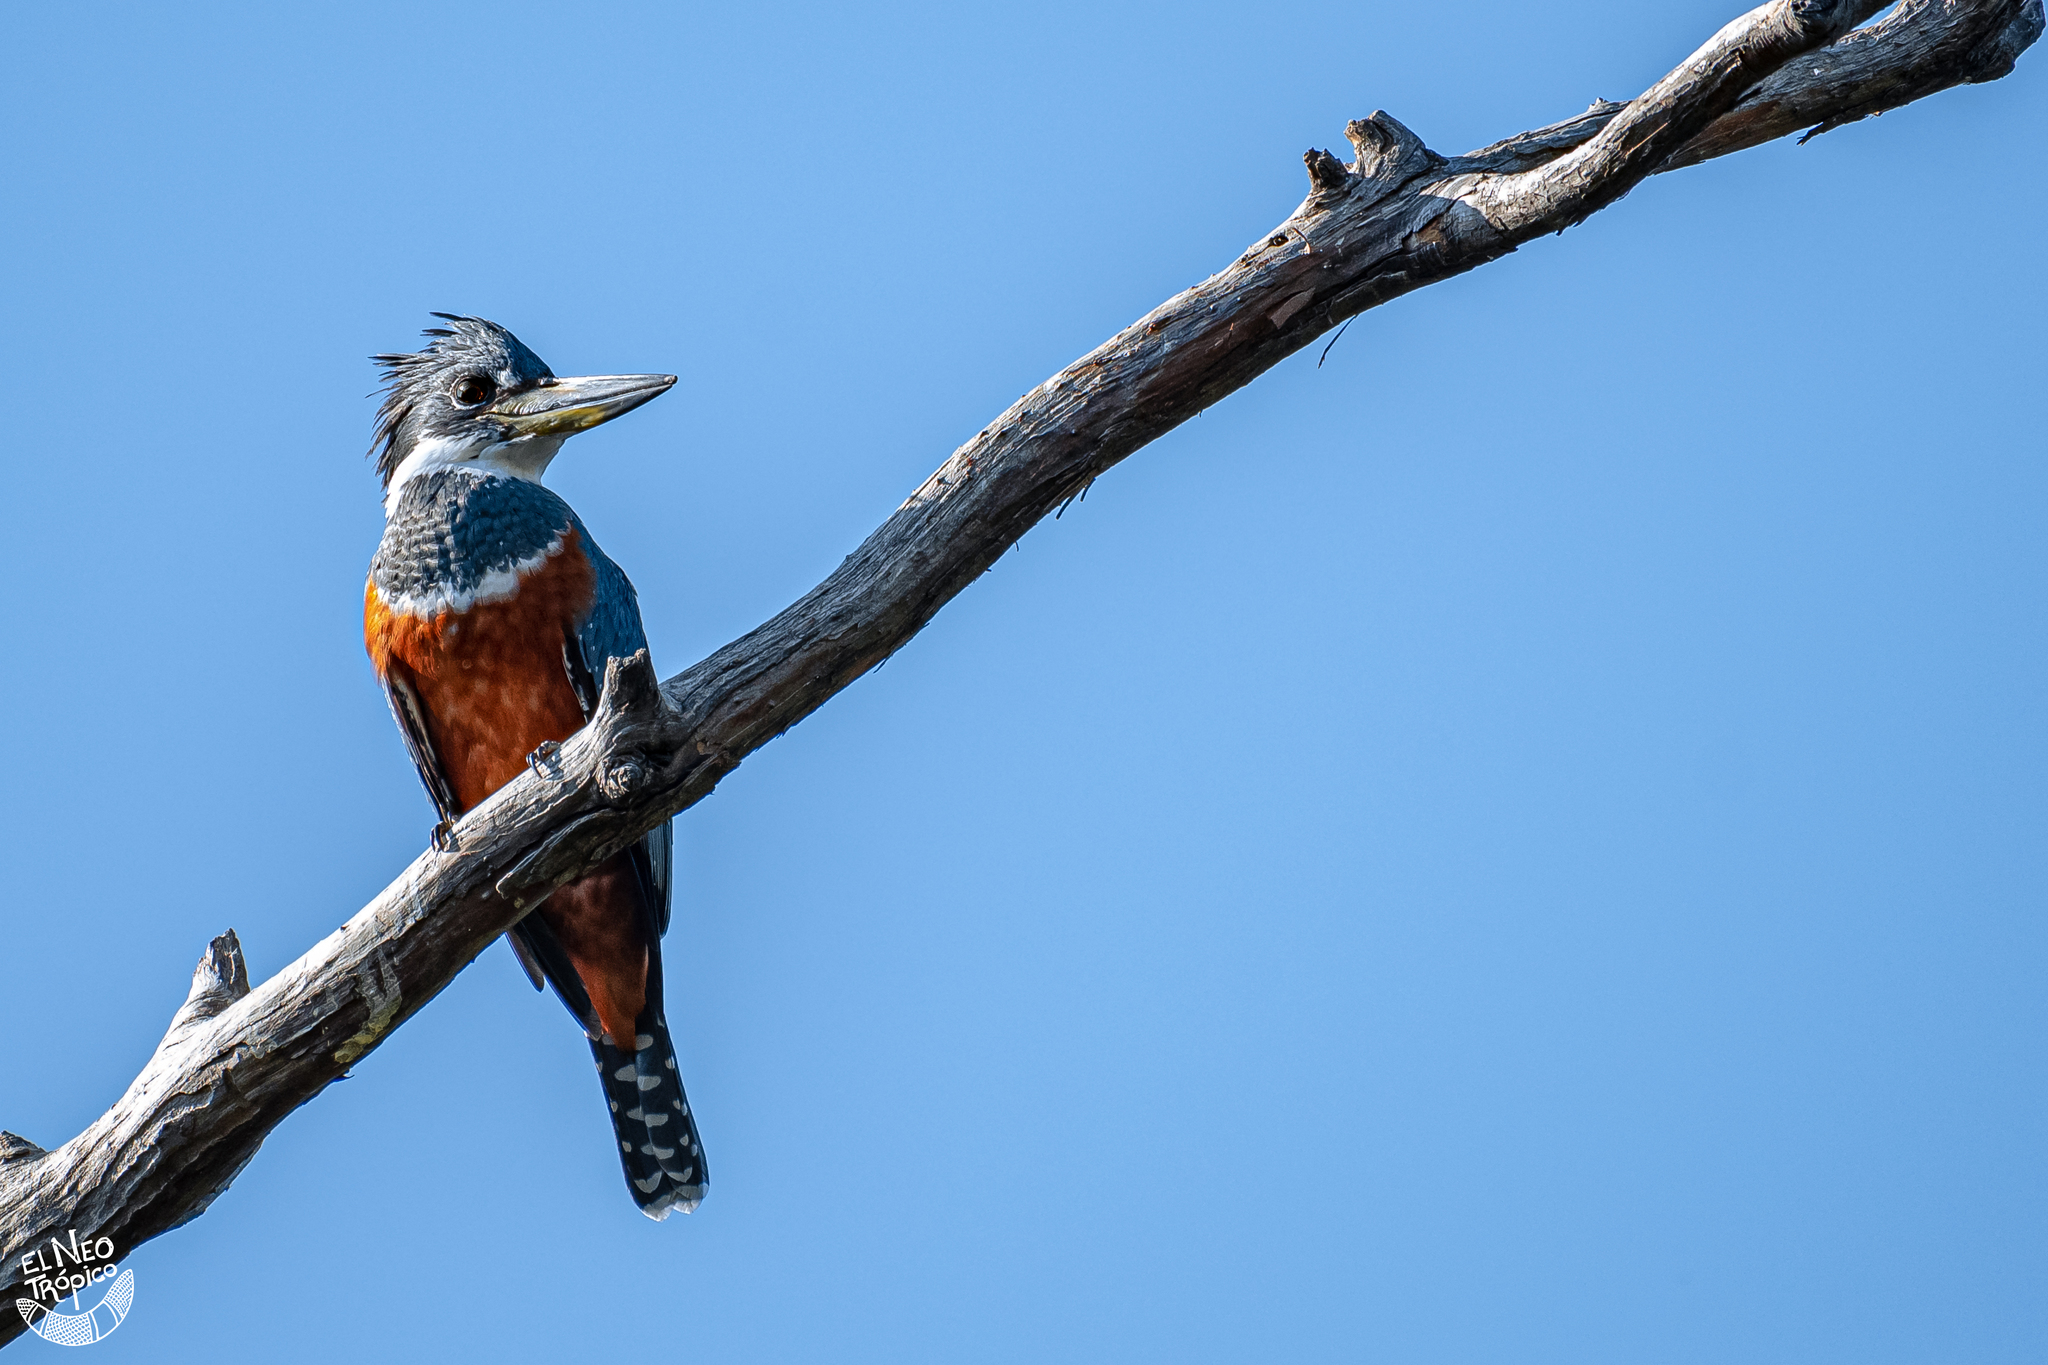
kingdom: Animalia
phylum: Chordata
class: Aves
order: Coraciiformes
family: Alcedinidae
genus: Megaceryle
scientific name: Megaceryle torquata
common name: Ringed kingfisher
